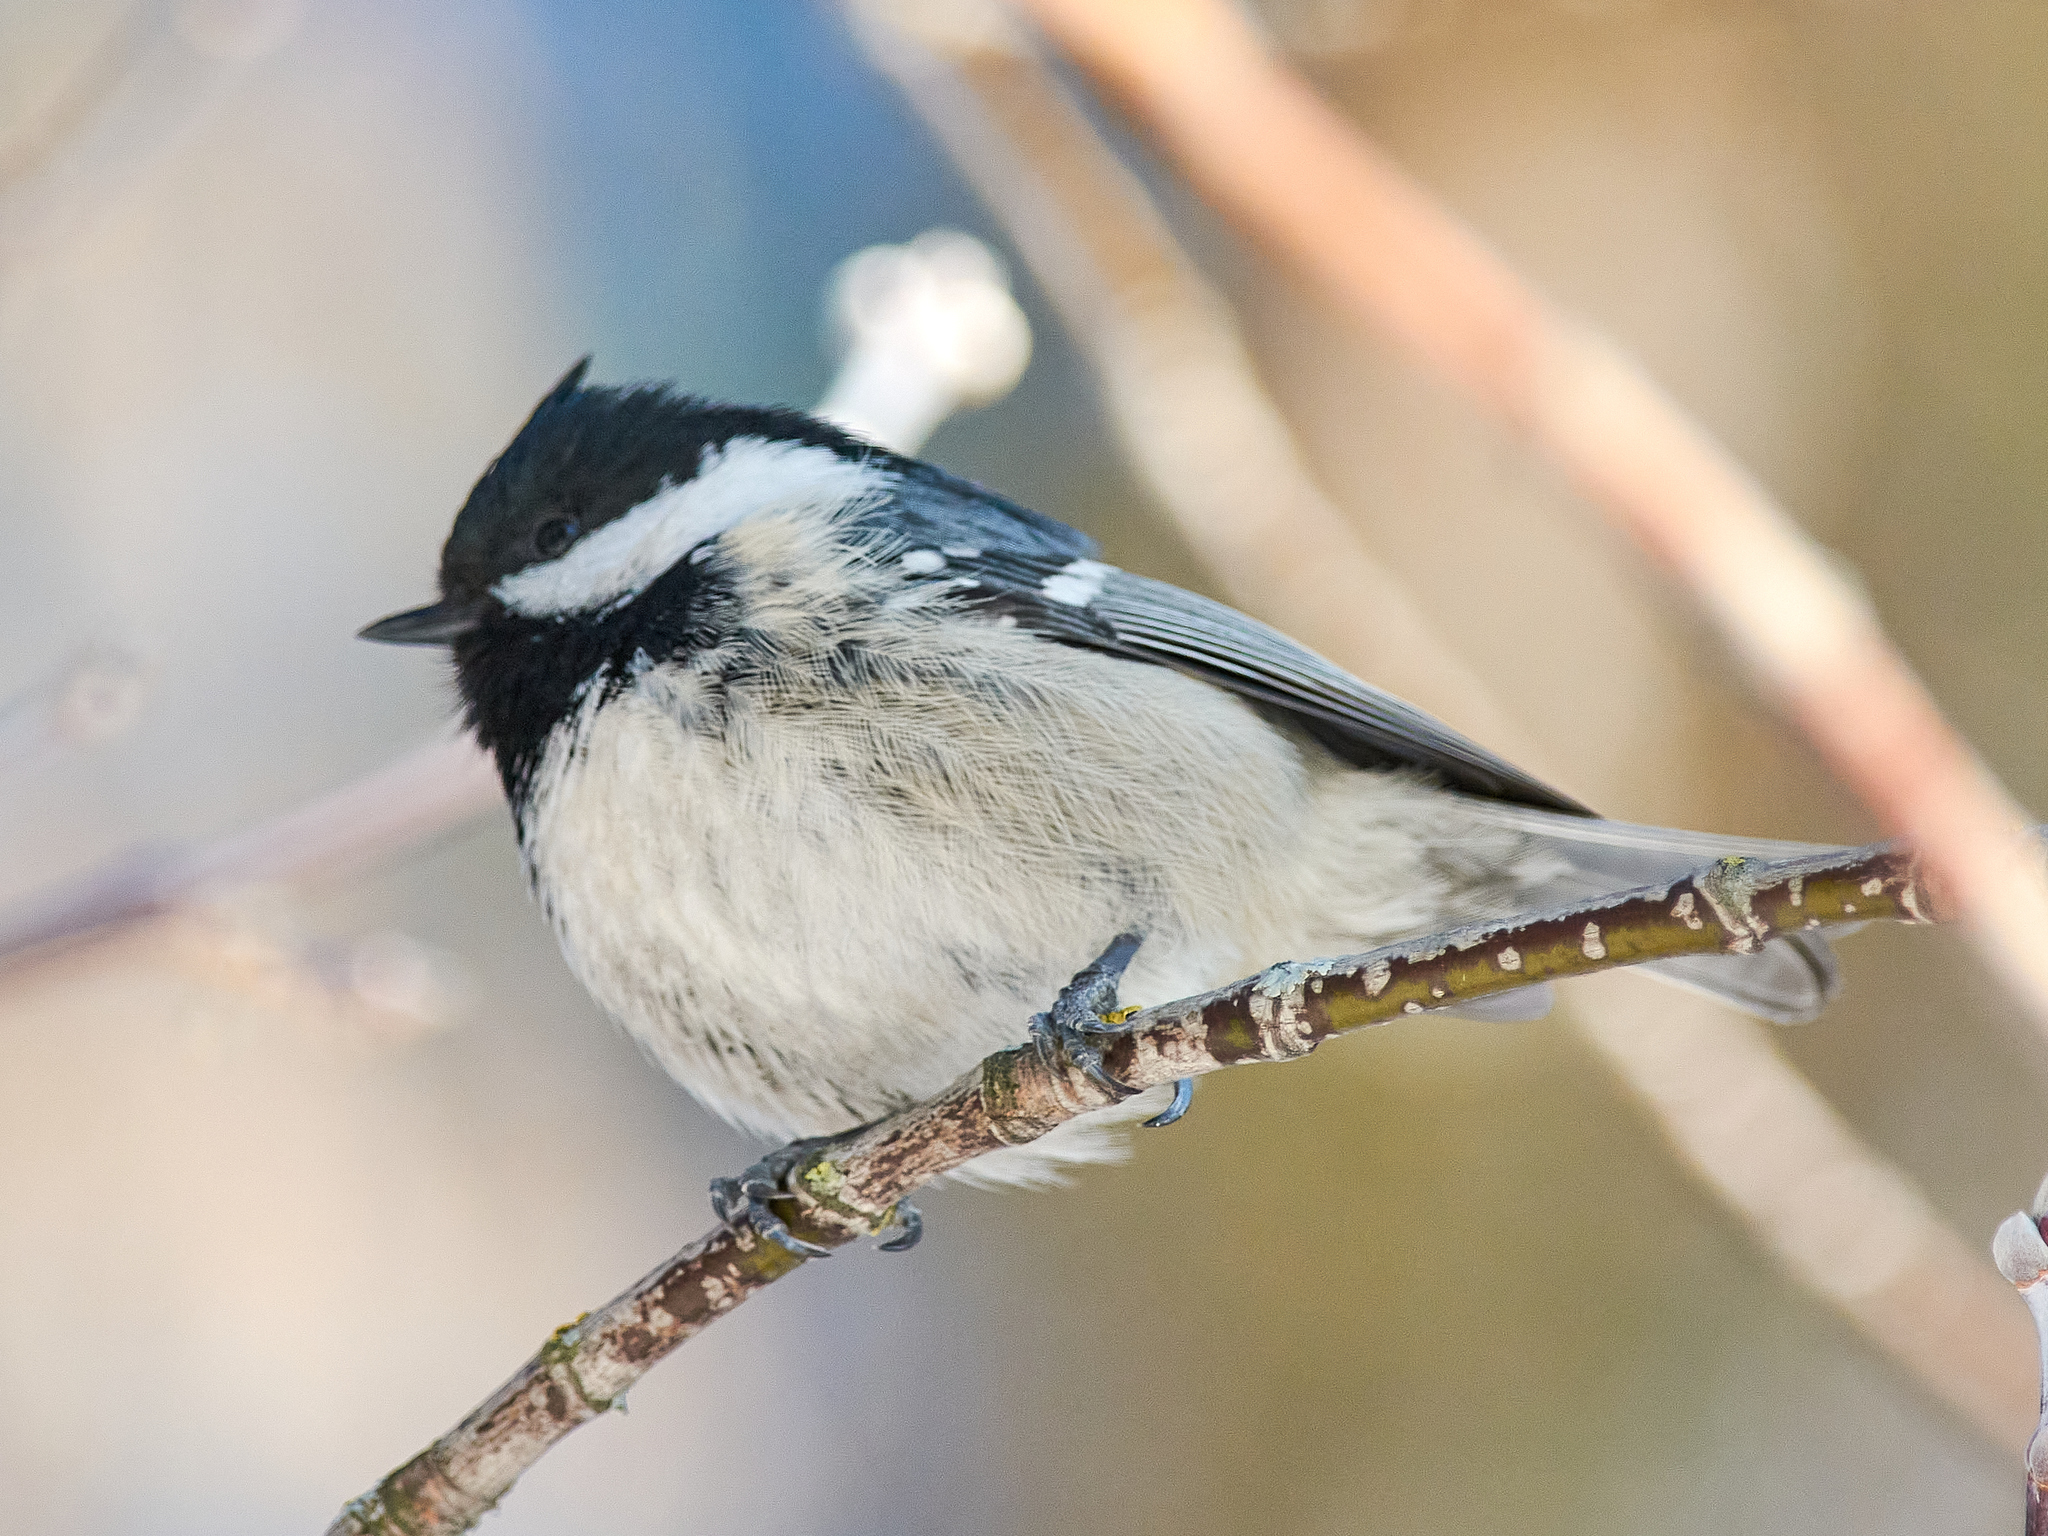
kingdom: Animalia
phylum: Chordata
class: Aves
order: Passeriformes
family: Paridae
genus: Periparus
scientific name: Periparus ater
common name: Coal tit
